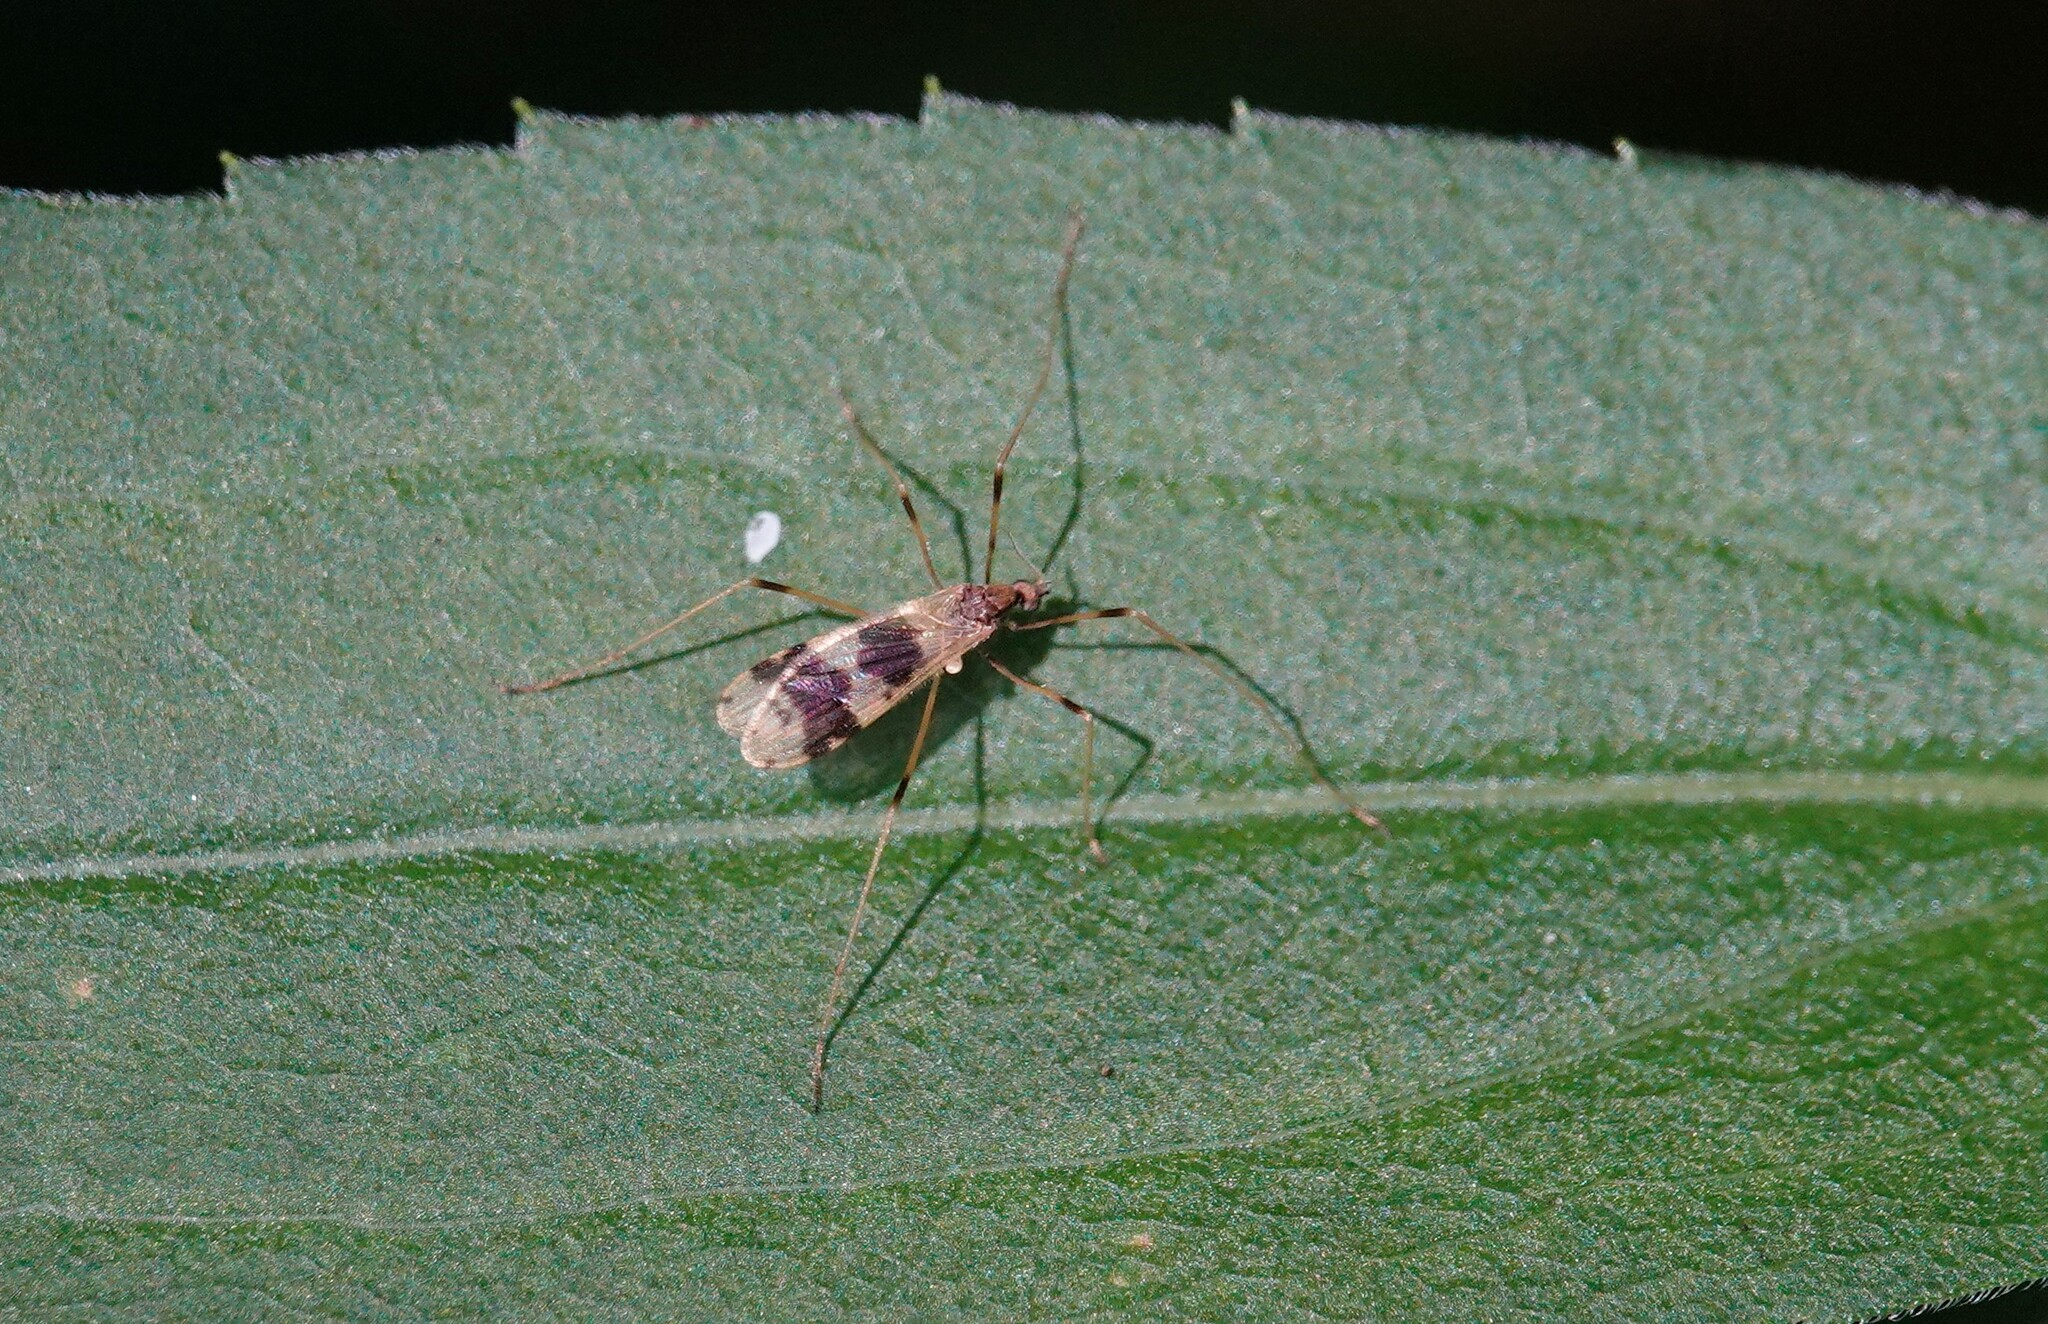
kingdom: Animalia
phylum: Arthropoda
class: Insecta
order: Diptera
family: Limoniidae
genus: Ilisia
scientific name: Ilisia venusta
